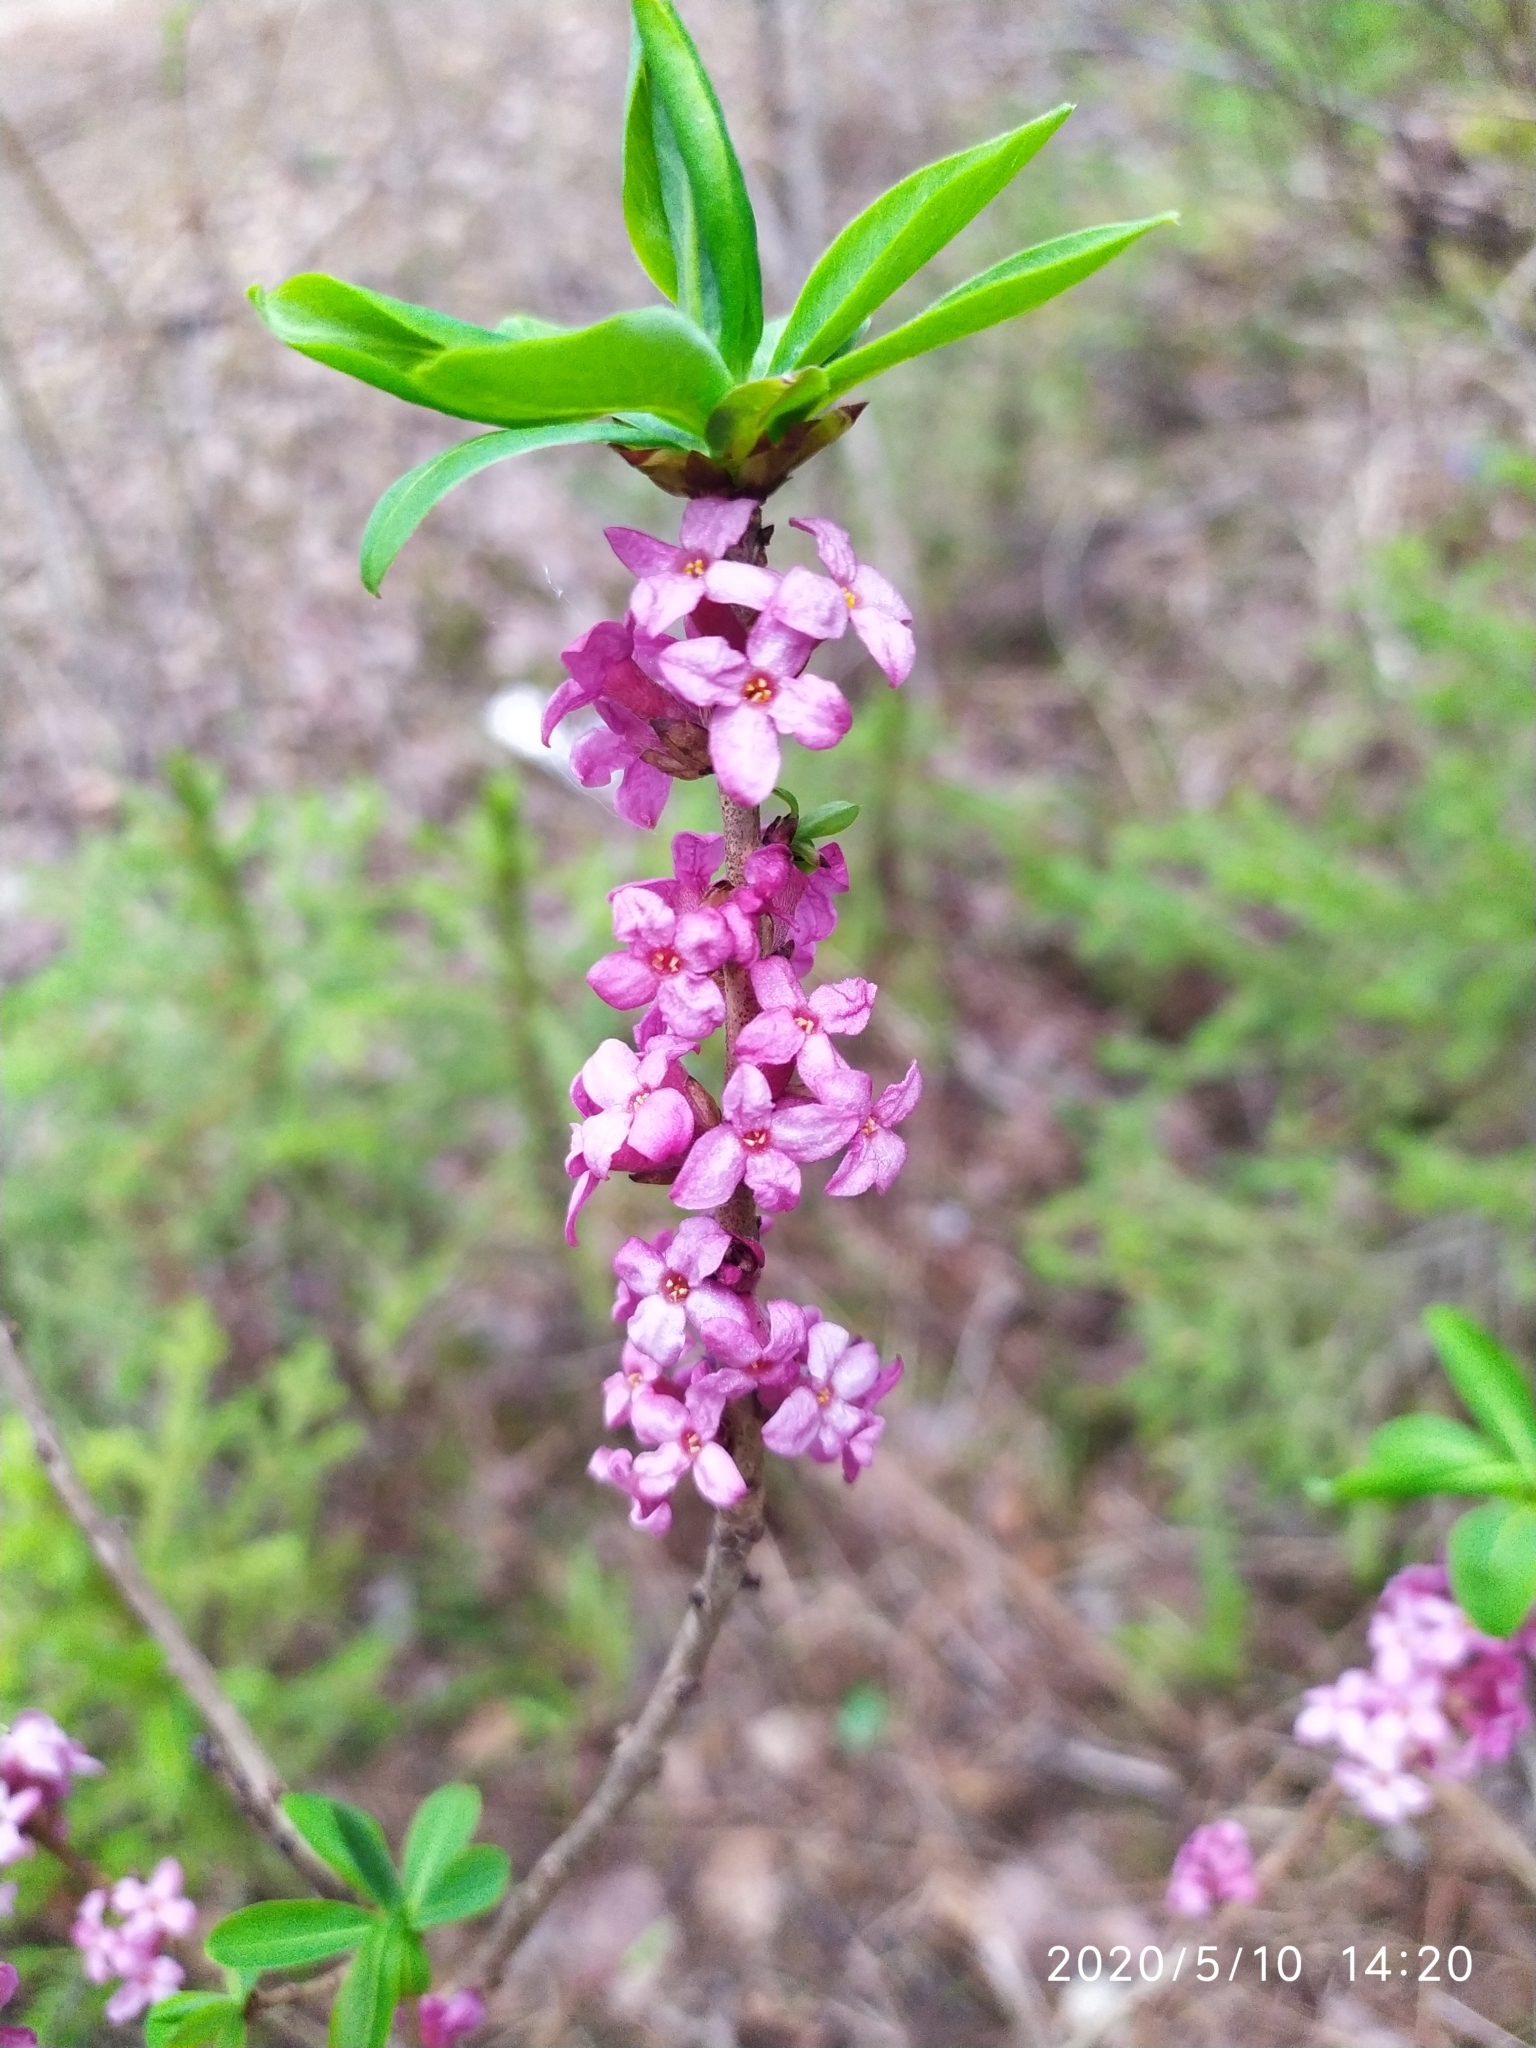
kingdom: Plantae
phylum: Tracheophyta
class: Magnoliopsida
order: Malvales
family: Thymelaeaceae
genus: Daphne
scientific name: Daphne mezereum
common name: Mezereon
